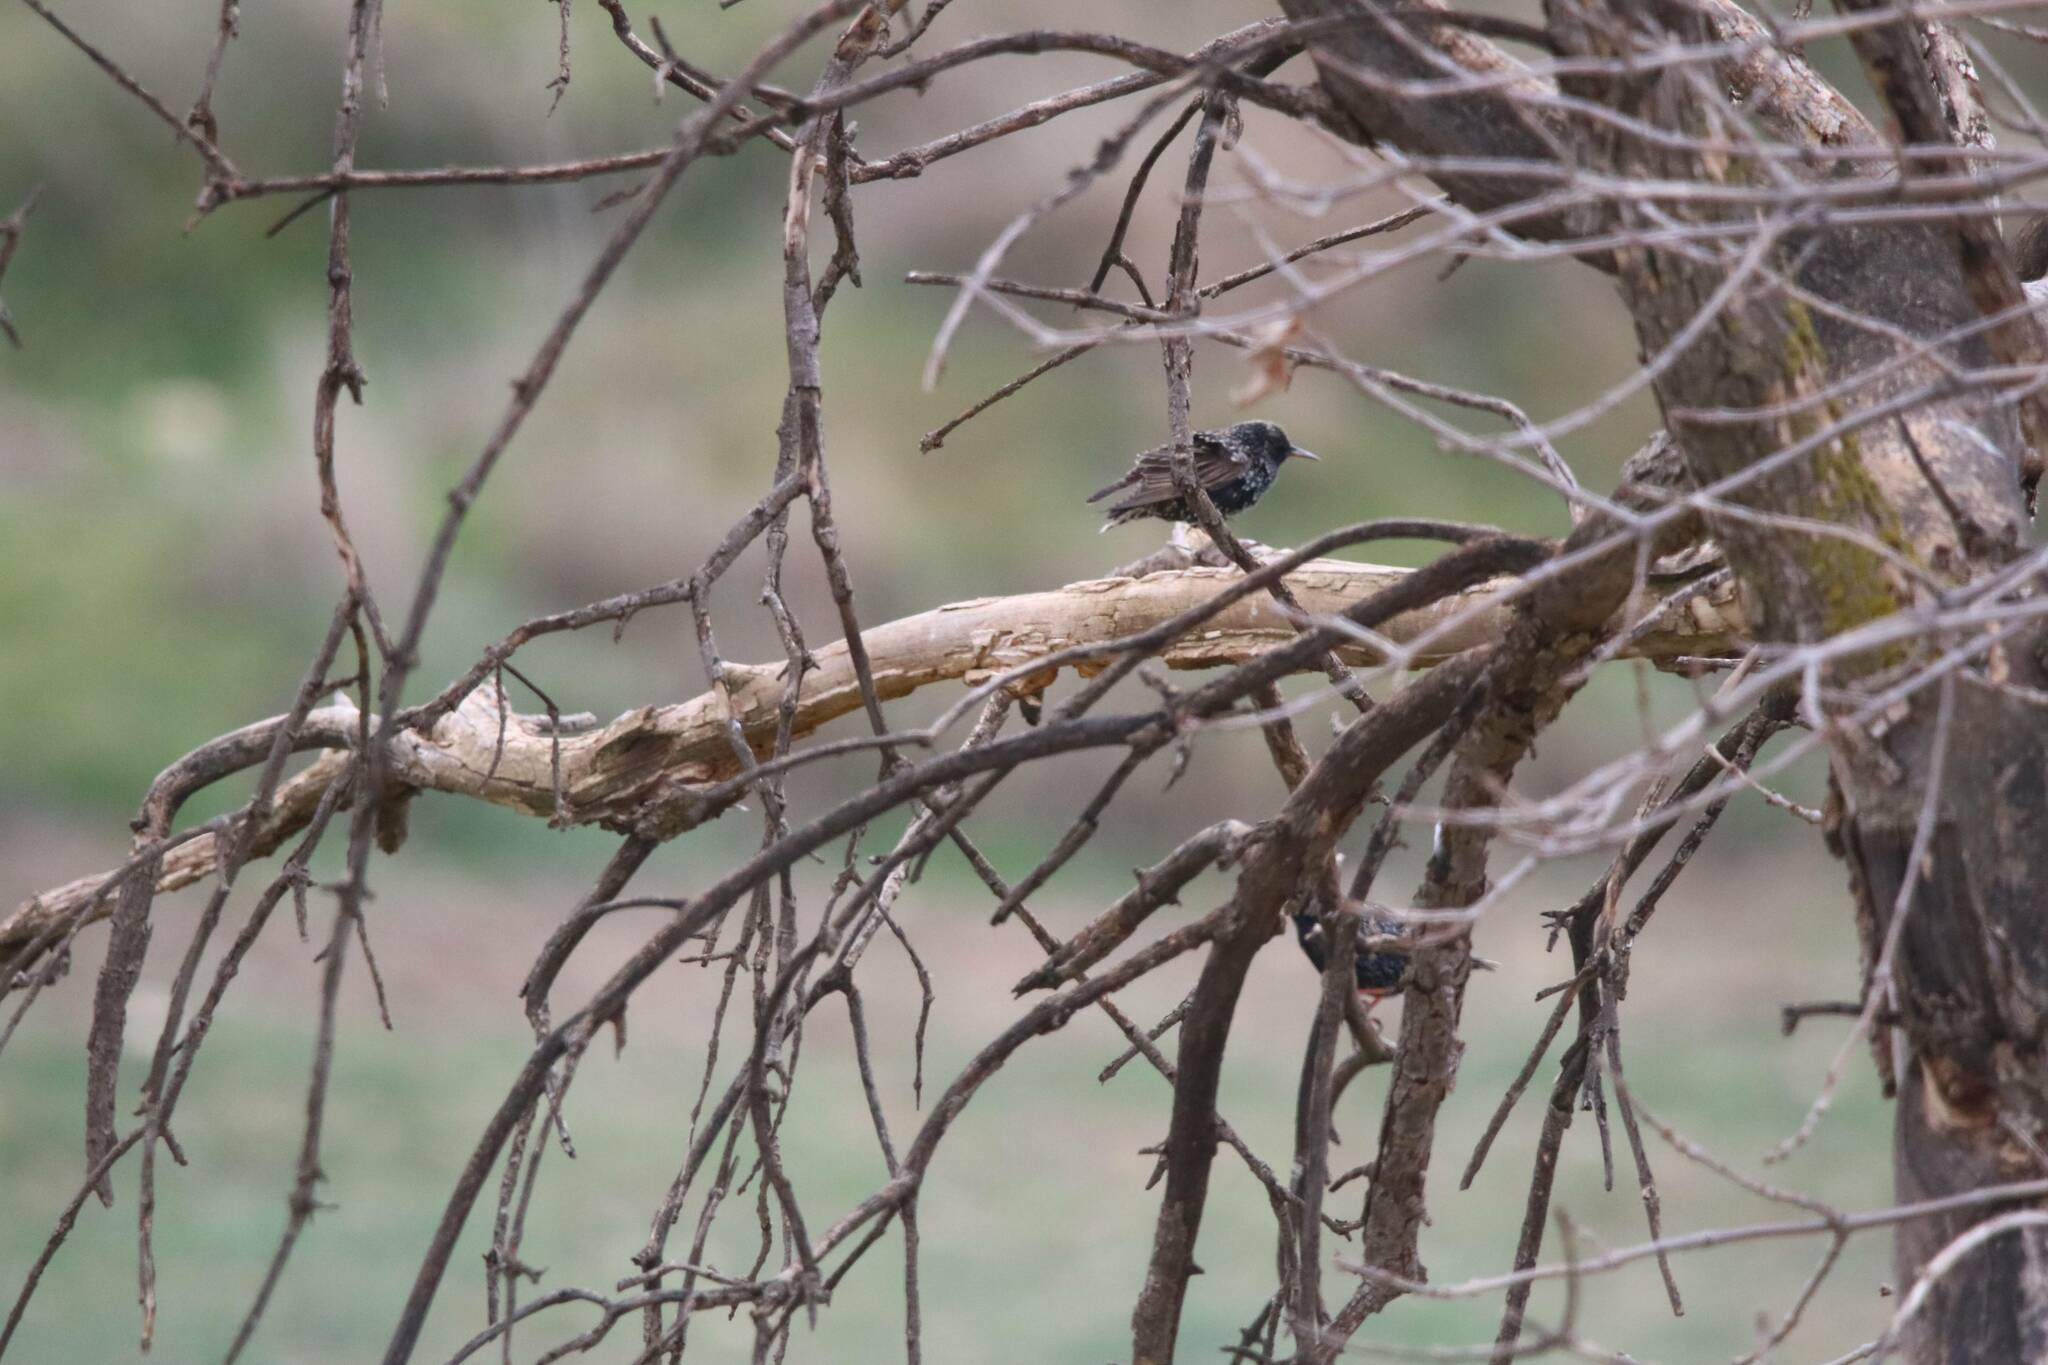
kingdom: Animalia
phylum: Chordata
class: Aves
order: Passeriformes
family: Sturnidae
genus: Sturnus
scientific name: Sturnus vulgaris
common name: Common starling
